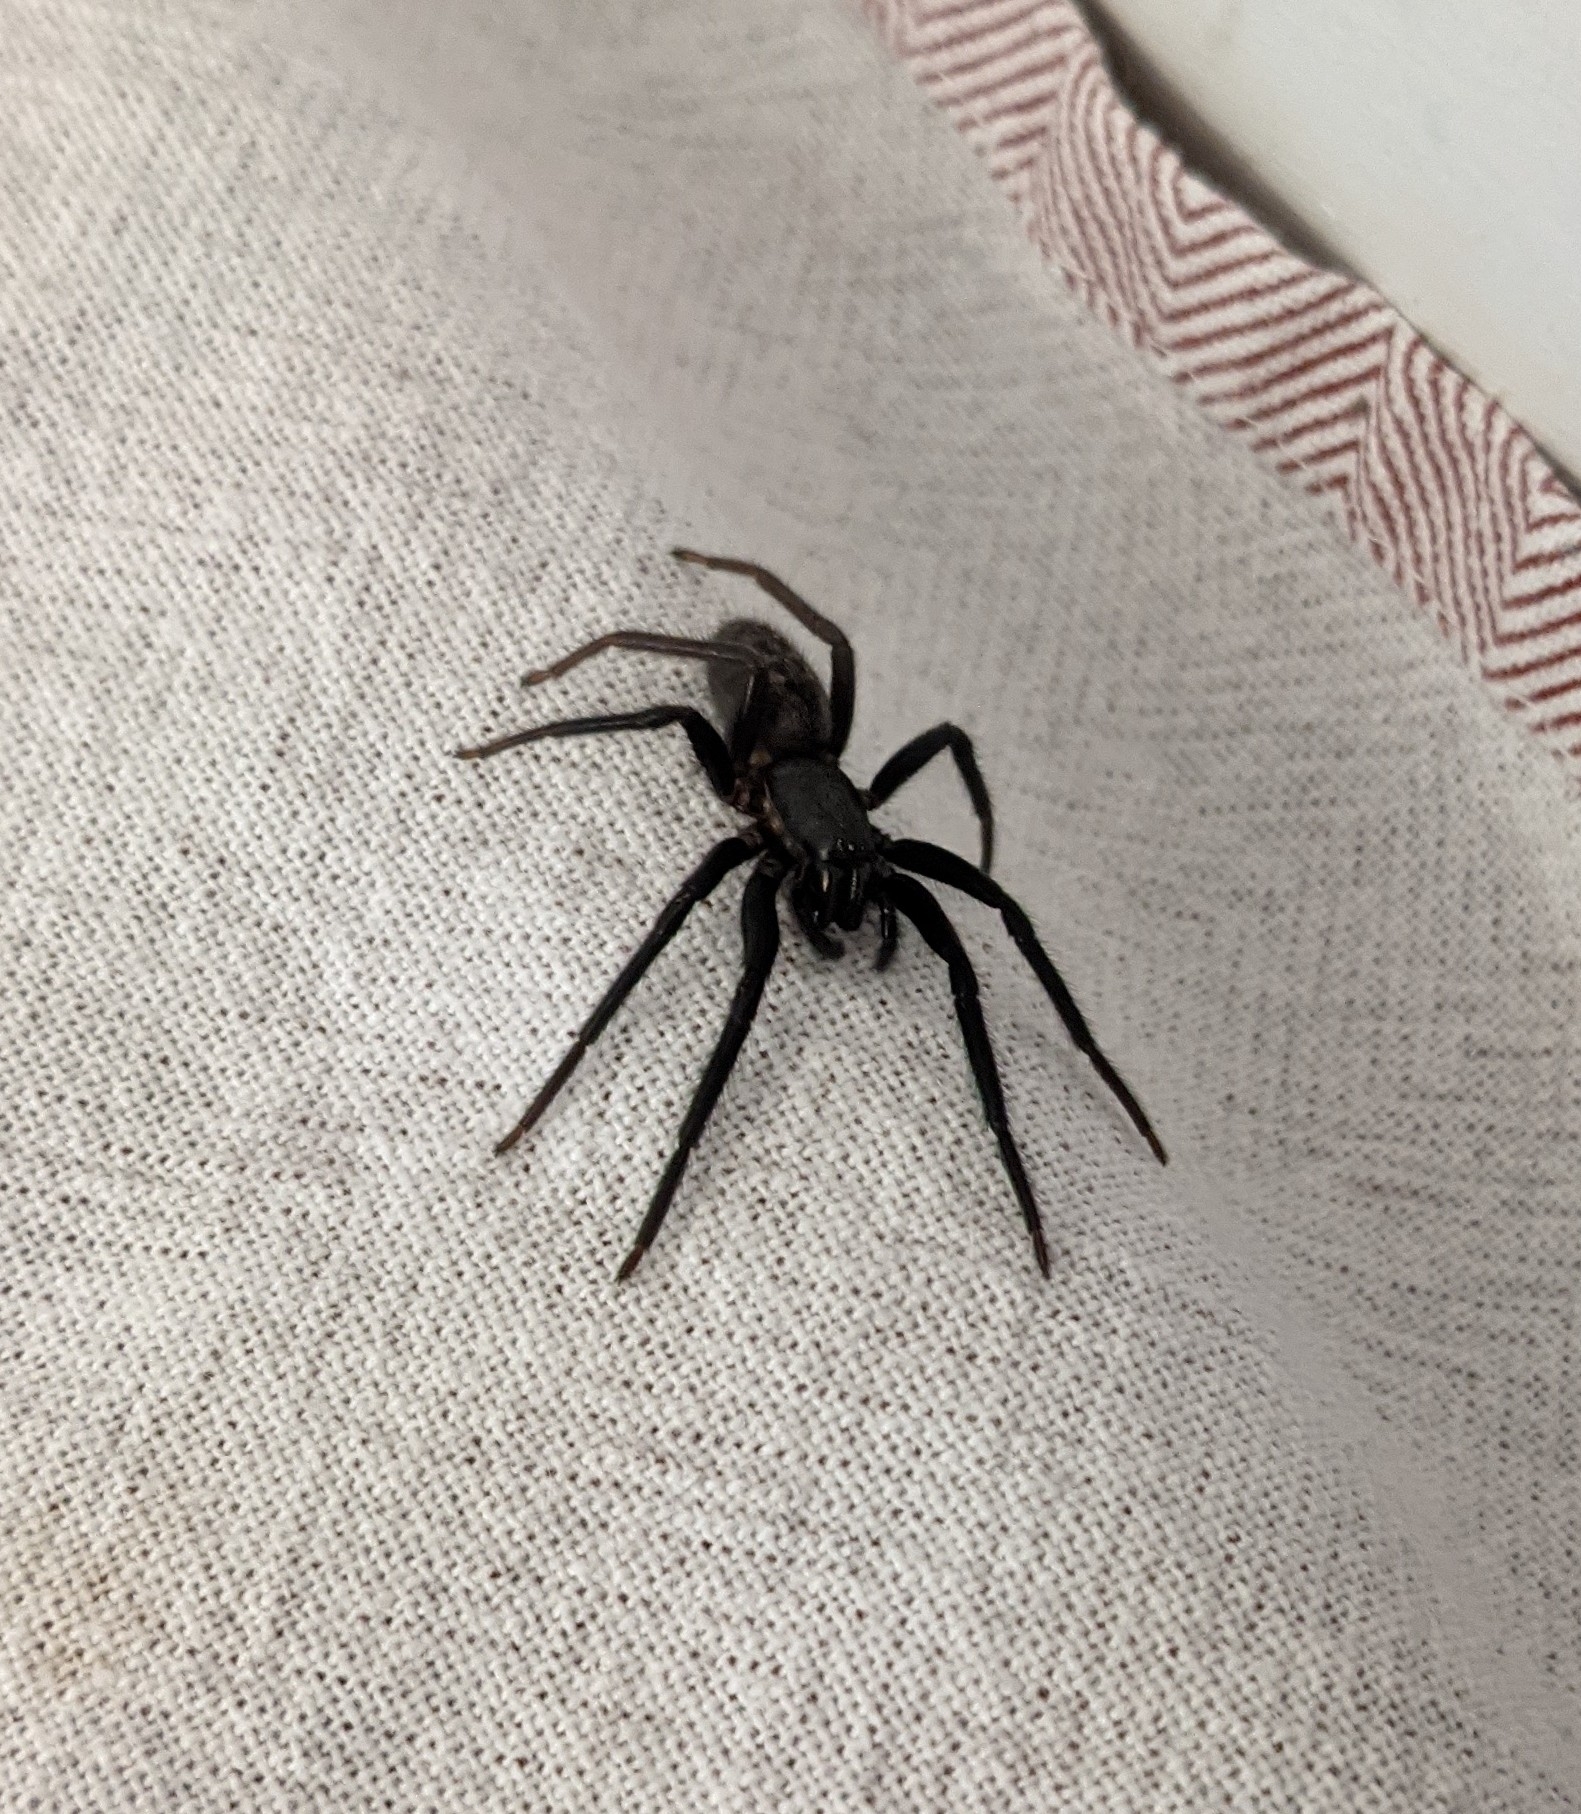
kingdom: Animalia
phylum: Arthropoda
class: Arachnida
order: Araneae
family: Segestriidae
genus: Segestria
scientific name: Segestria florentina
